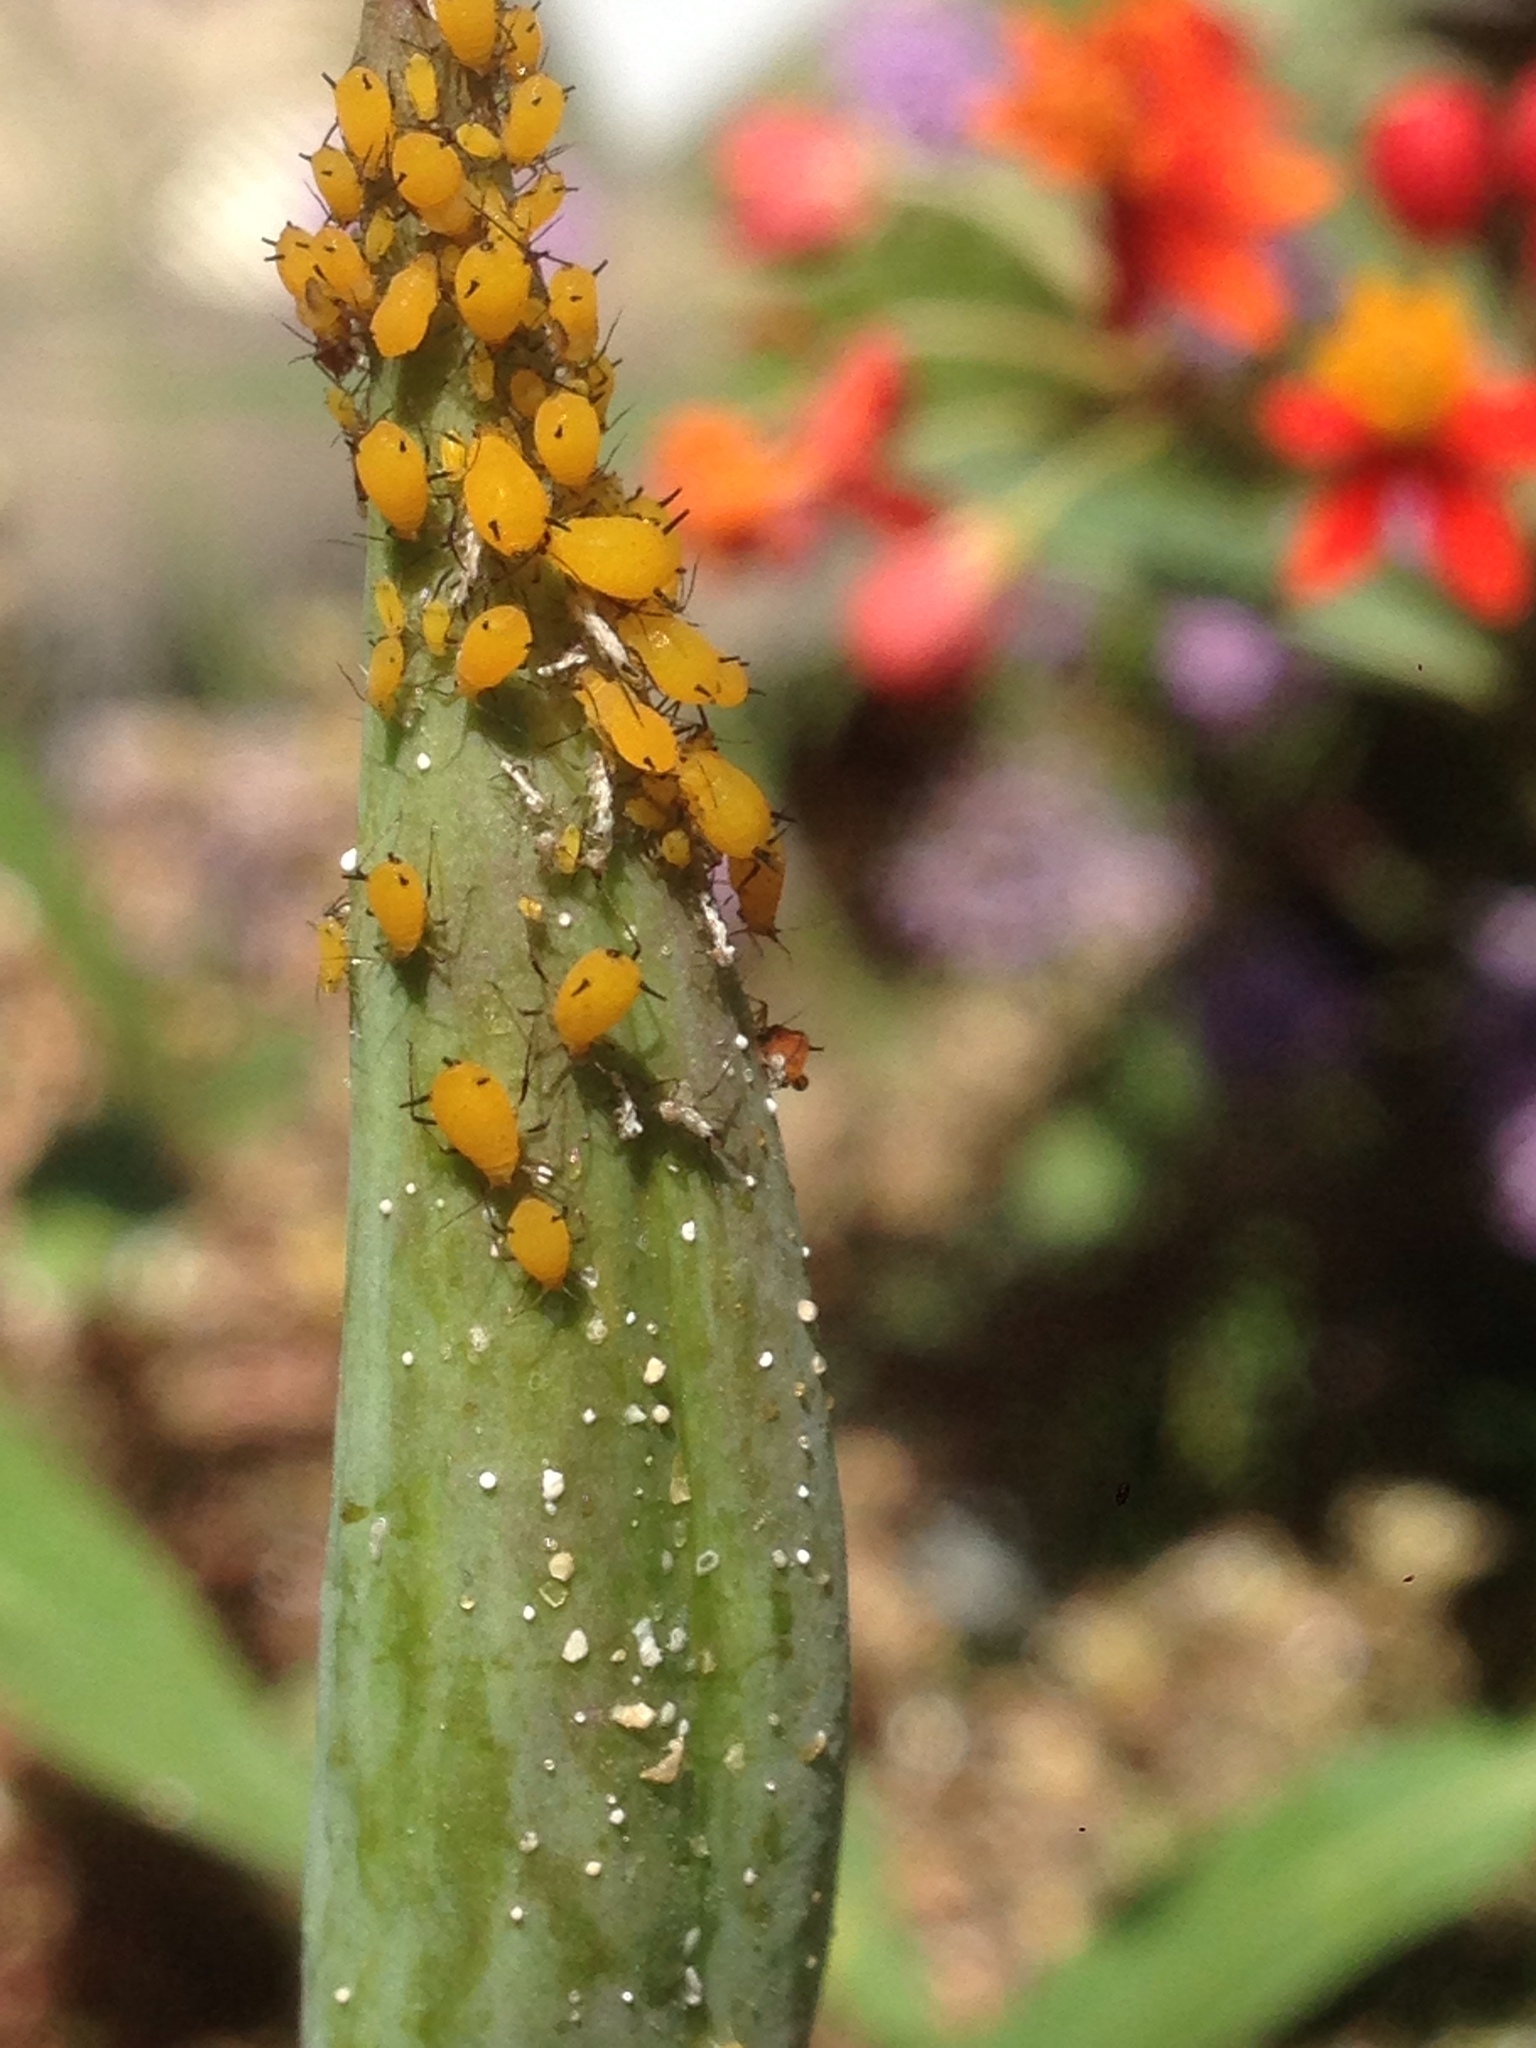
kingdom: Animalia
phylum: Arthropoda
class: Insecta
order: Hemiptera
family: Aphididae
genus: Aphis
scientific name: Aphis nerii
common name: Oleander aphid
